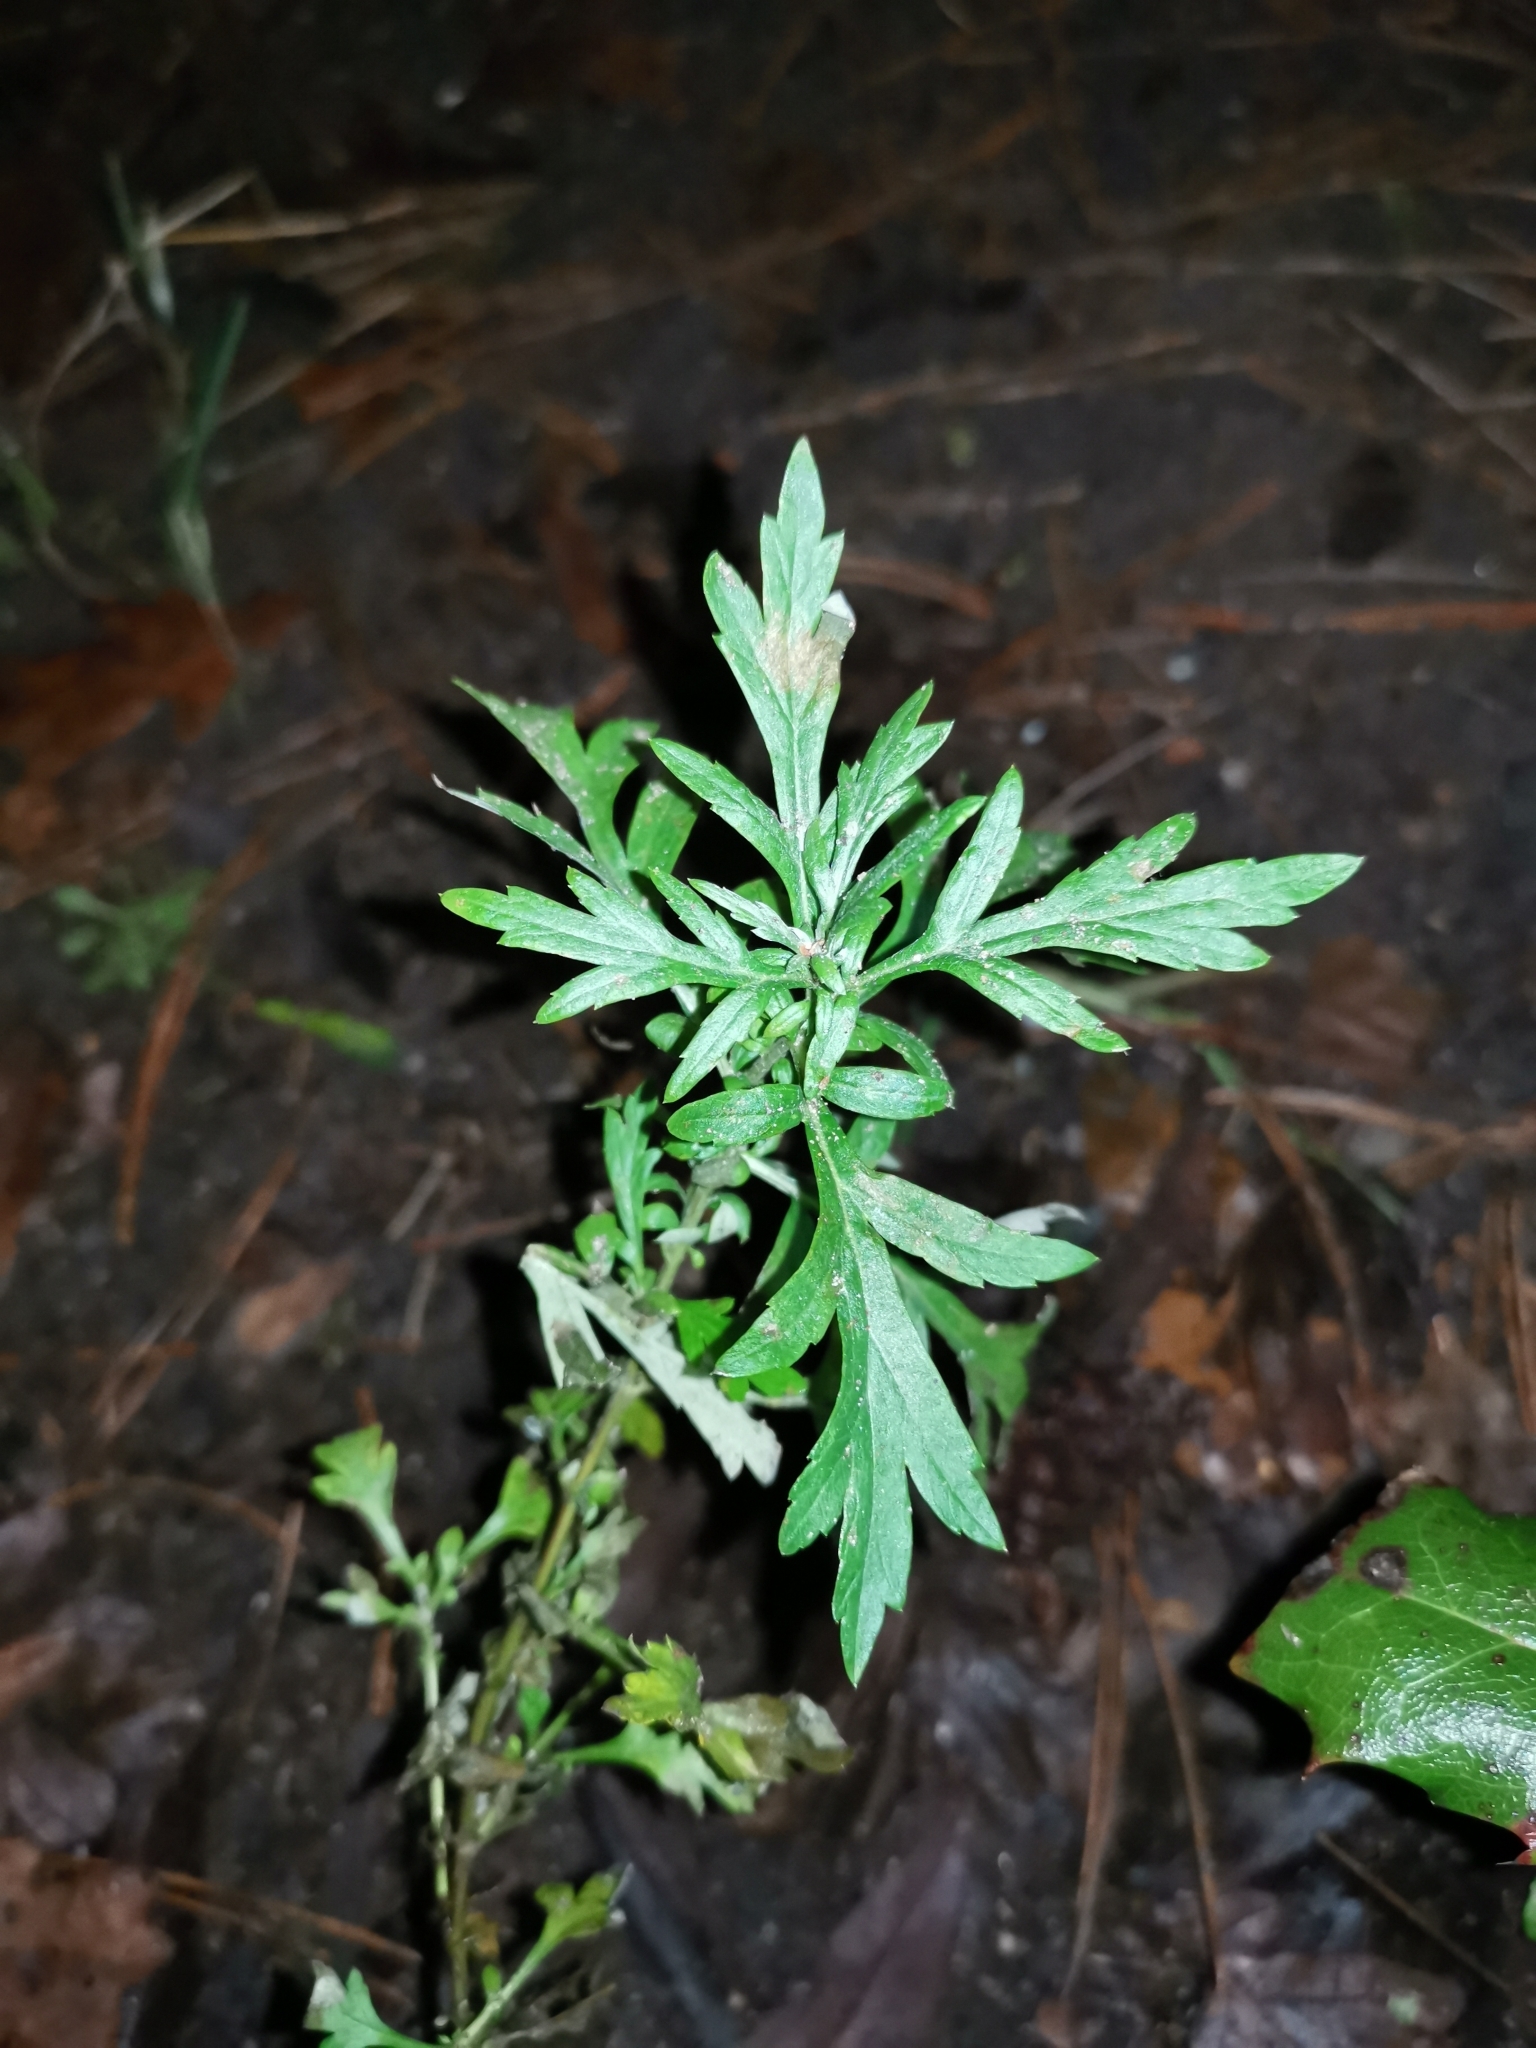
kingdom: Plantae
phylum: Tracheophyta
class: Magnoliopsida
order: Asterales
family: Asteraceae
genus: Artemisia
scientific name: Artemisia vulgaris
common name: Mugwort
